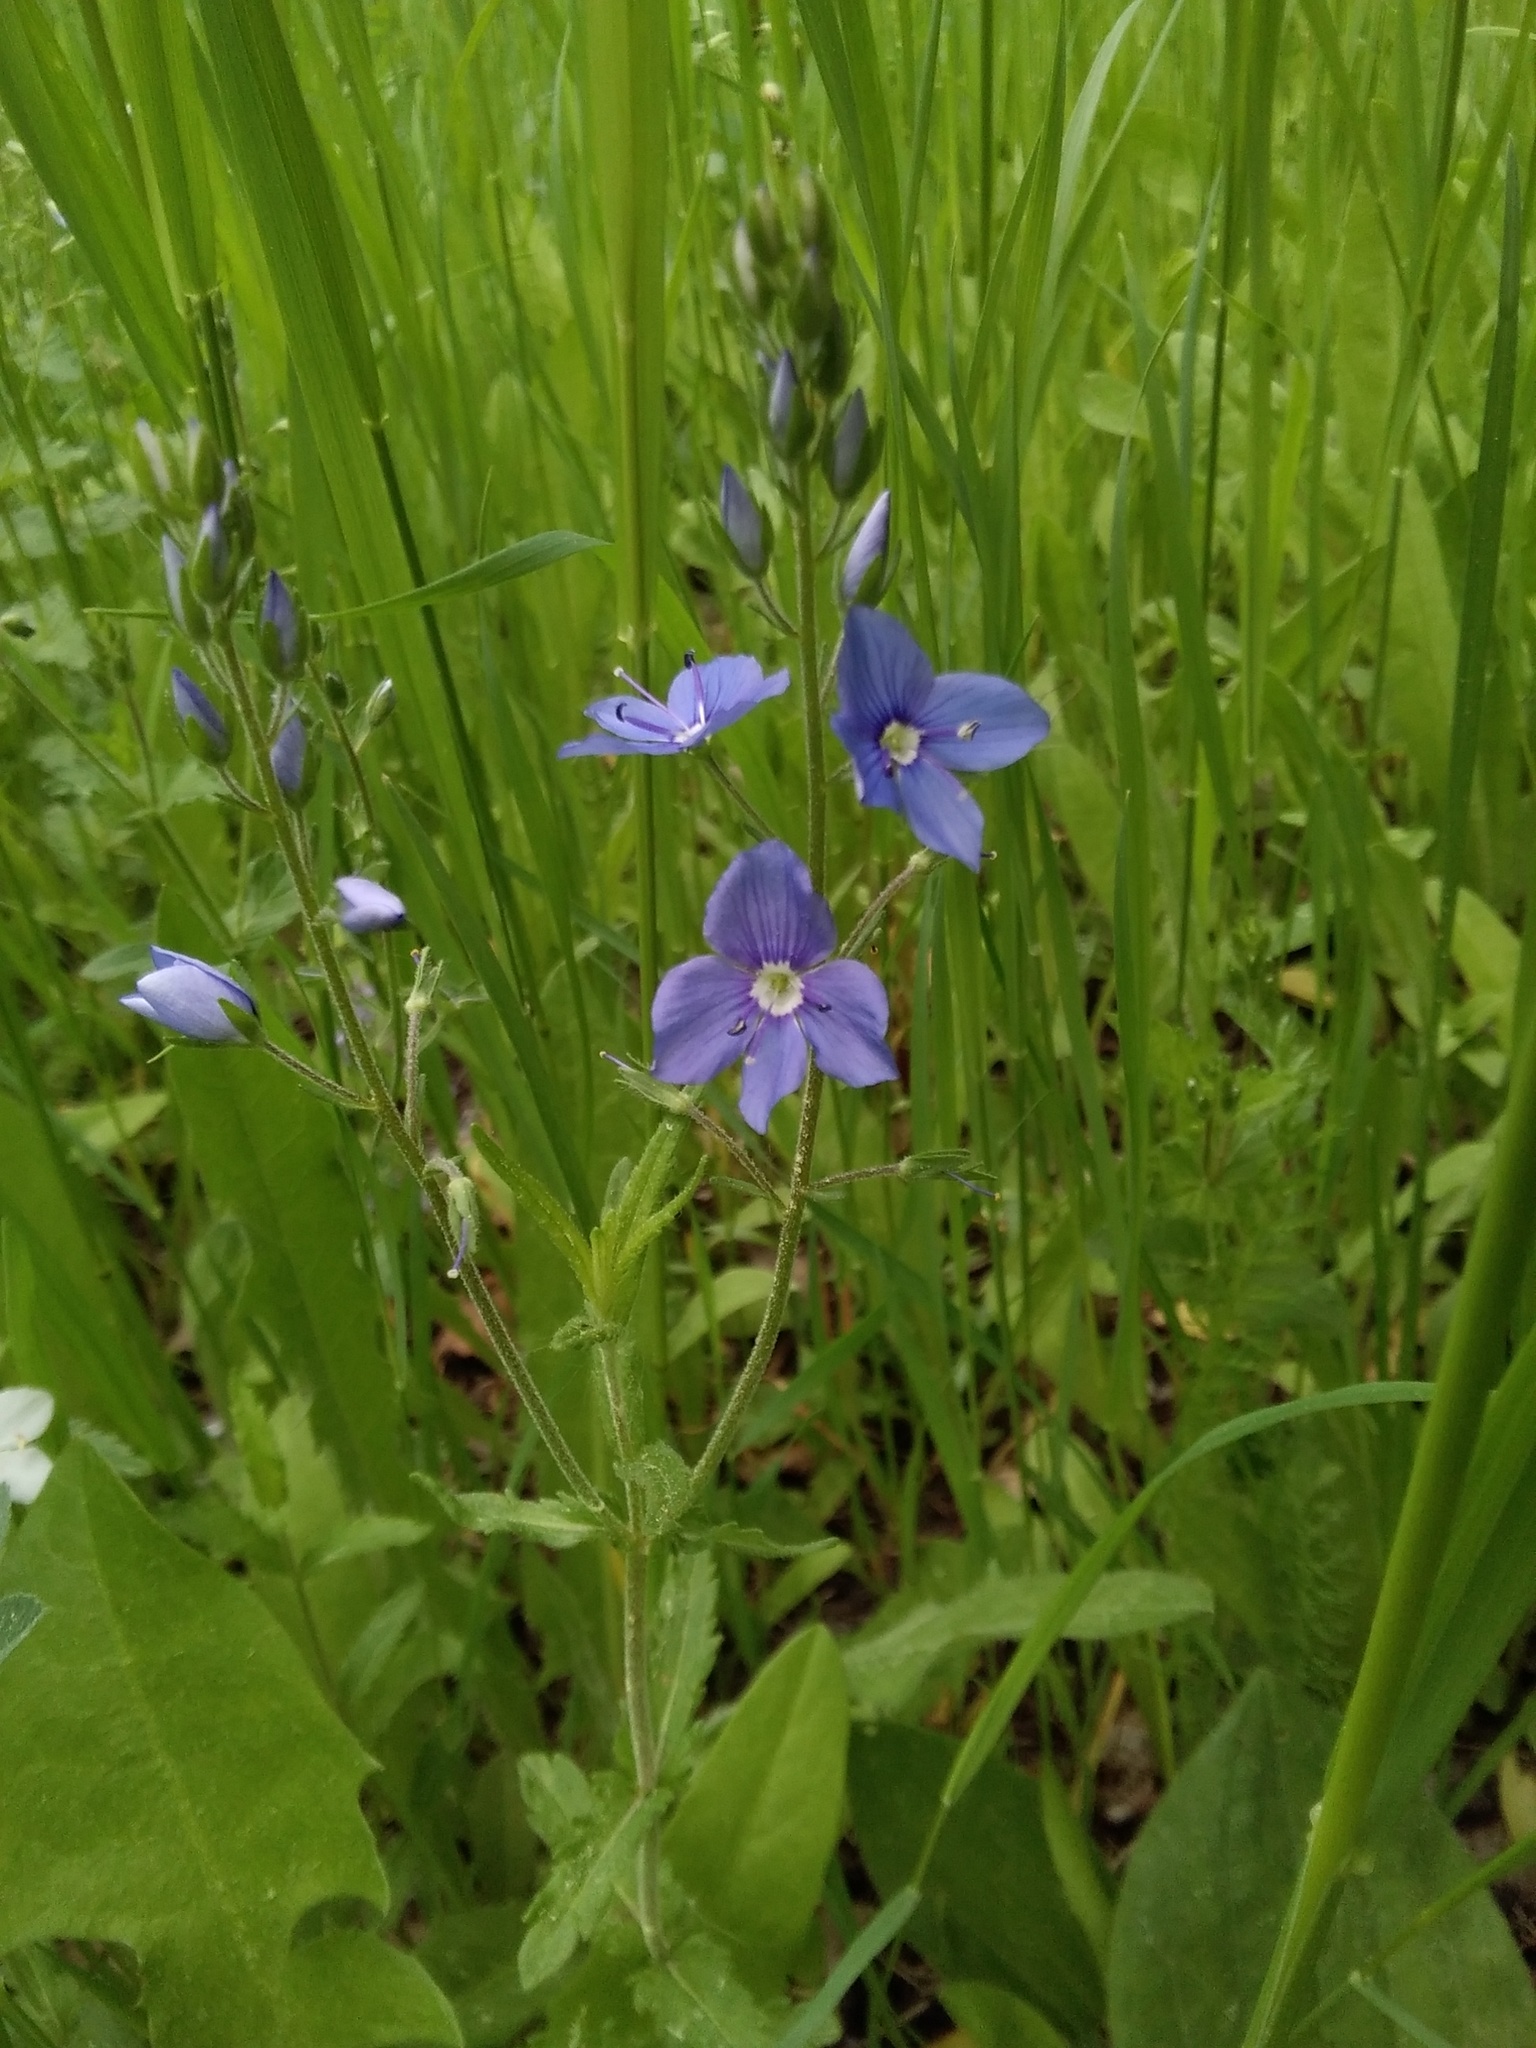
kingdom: Plantae
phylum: Tracheophyta
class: Magnoliopsida
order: Lamiales
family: Plantaginaceae
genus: Veronica
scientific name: Veronica krylovii
